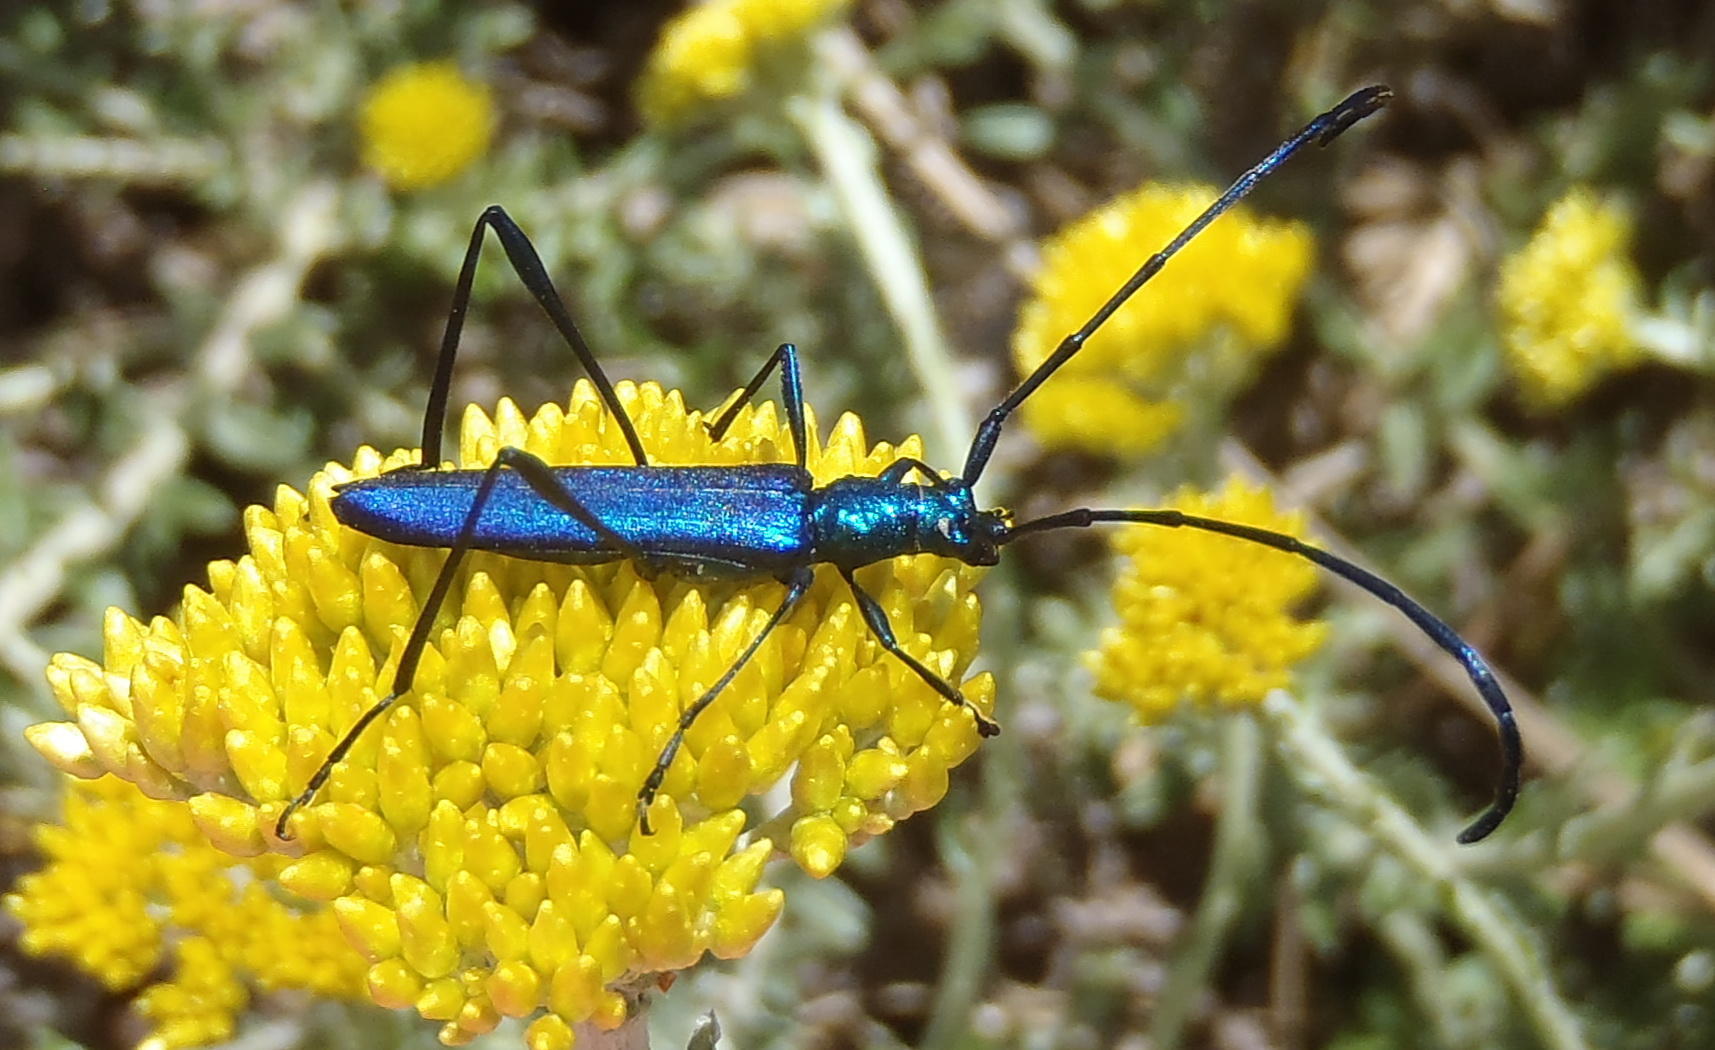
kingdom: Animalia
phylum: Arthropoda
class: Insecta
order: Coleoptera
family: Cerambycidae
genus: Promeces
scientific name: Promeces longipes
